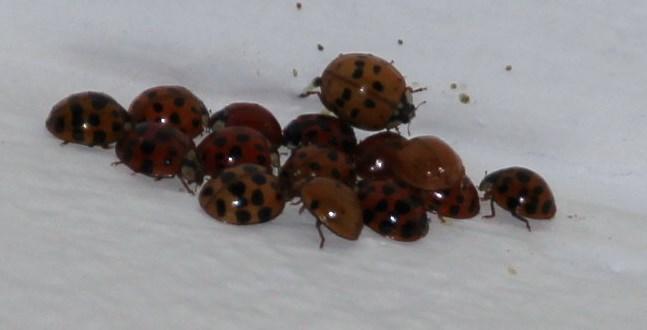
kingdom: Animalia
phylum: Arthropoda
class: Insecta
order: Coleoptera
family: Coccinellidae
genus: Harmonia
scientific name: Harmonia axyridis
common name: Harlequin ladybird
